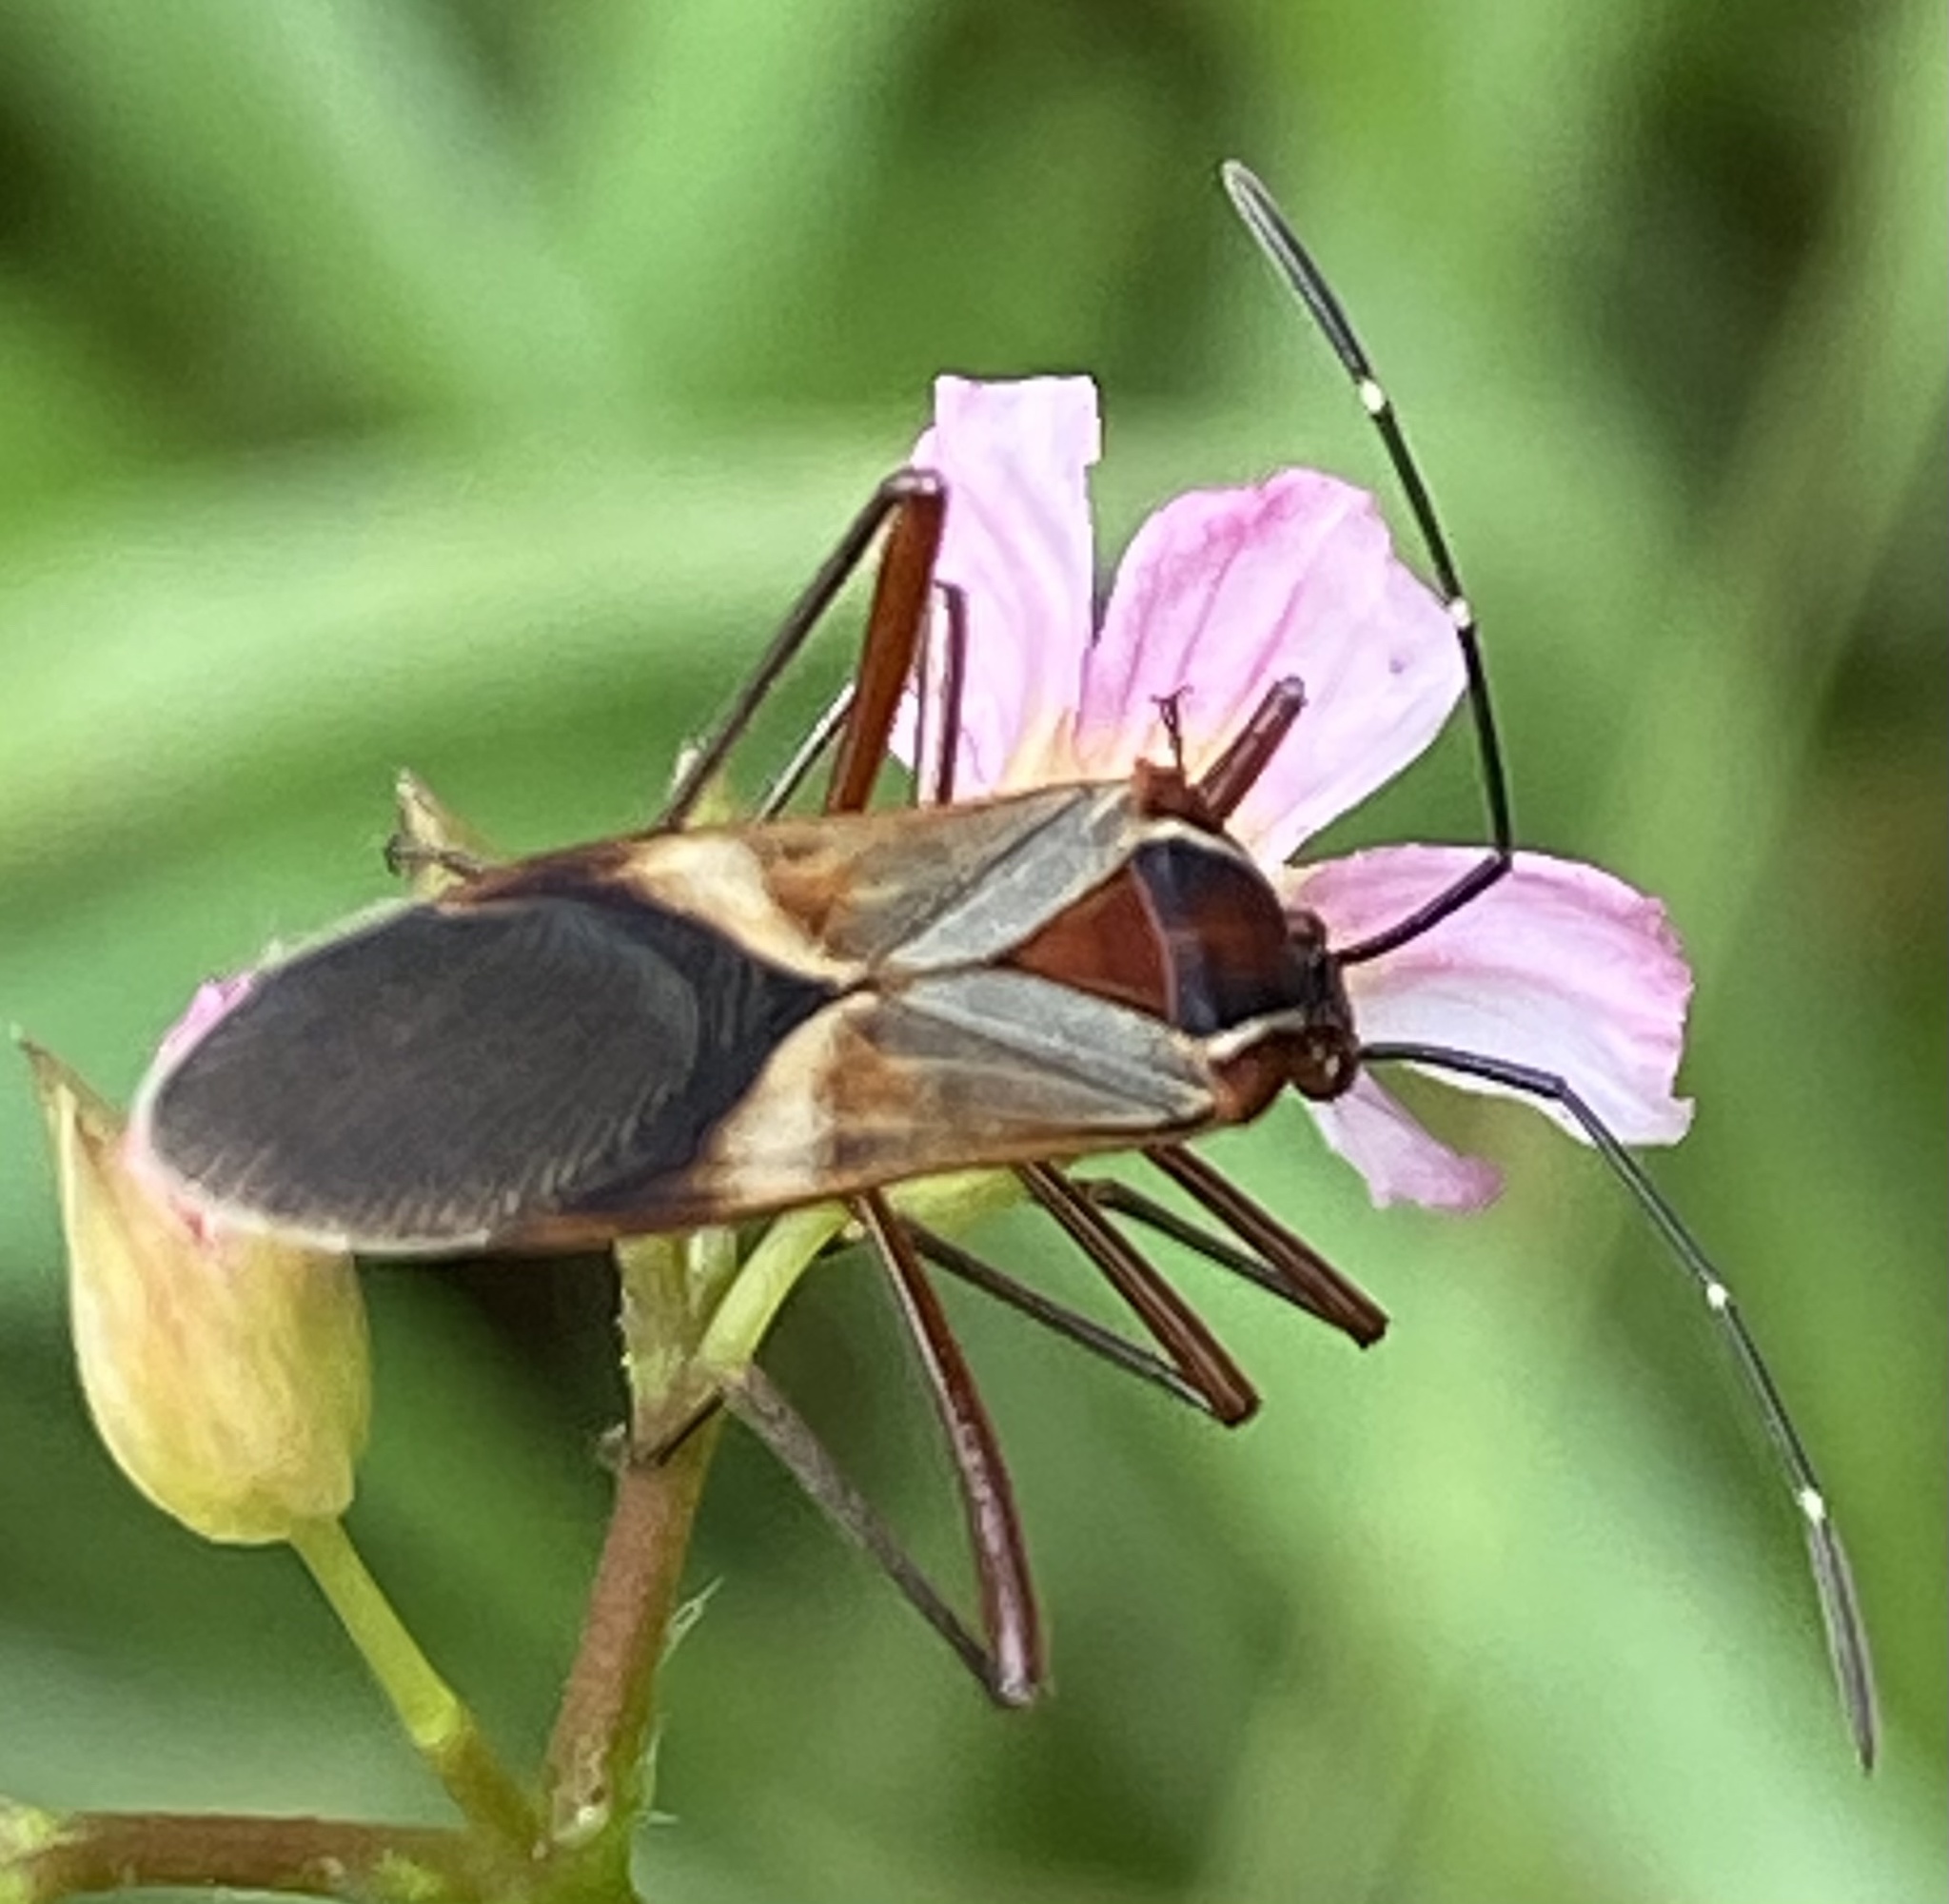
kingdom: Animalia
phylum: Arthropoda
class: Insecta
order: Hemiptera
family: Coreidae
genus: Hypselonotus
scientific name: Hypselonotus interruptus
